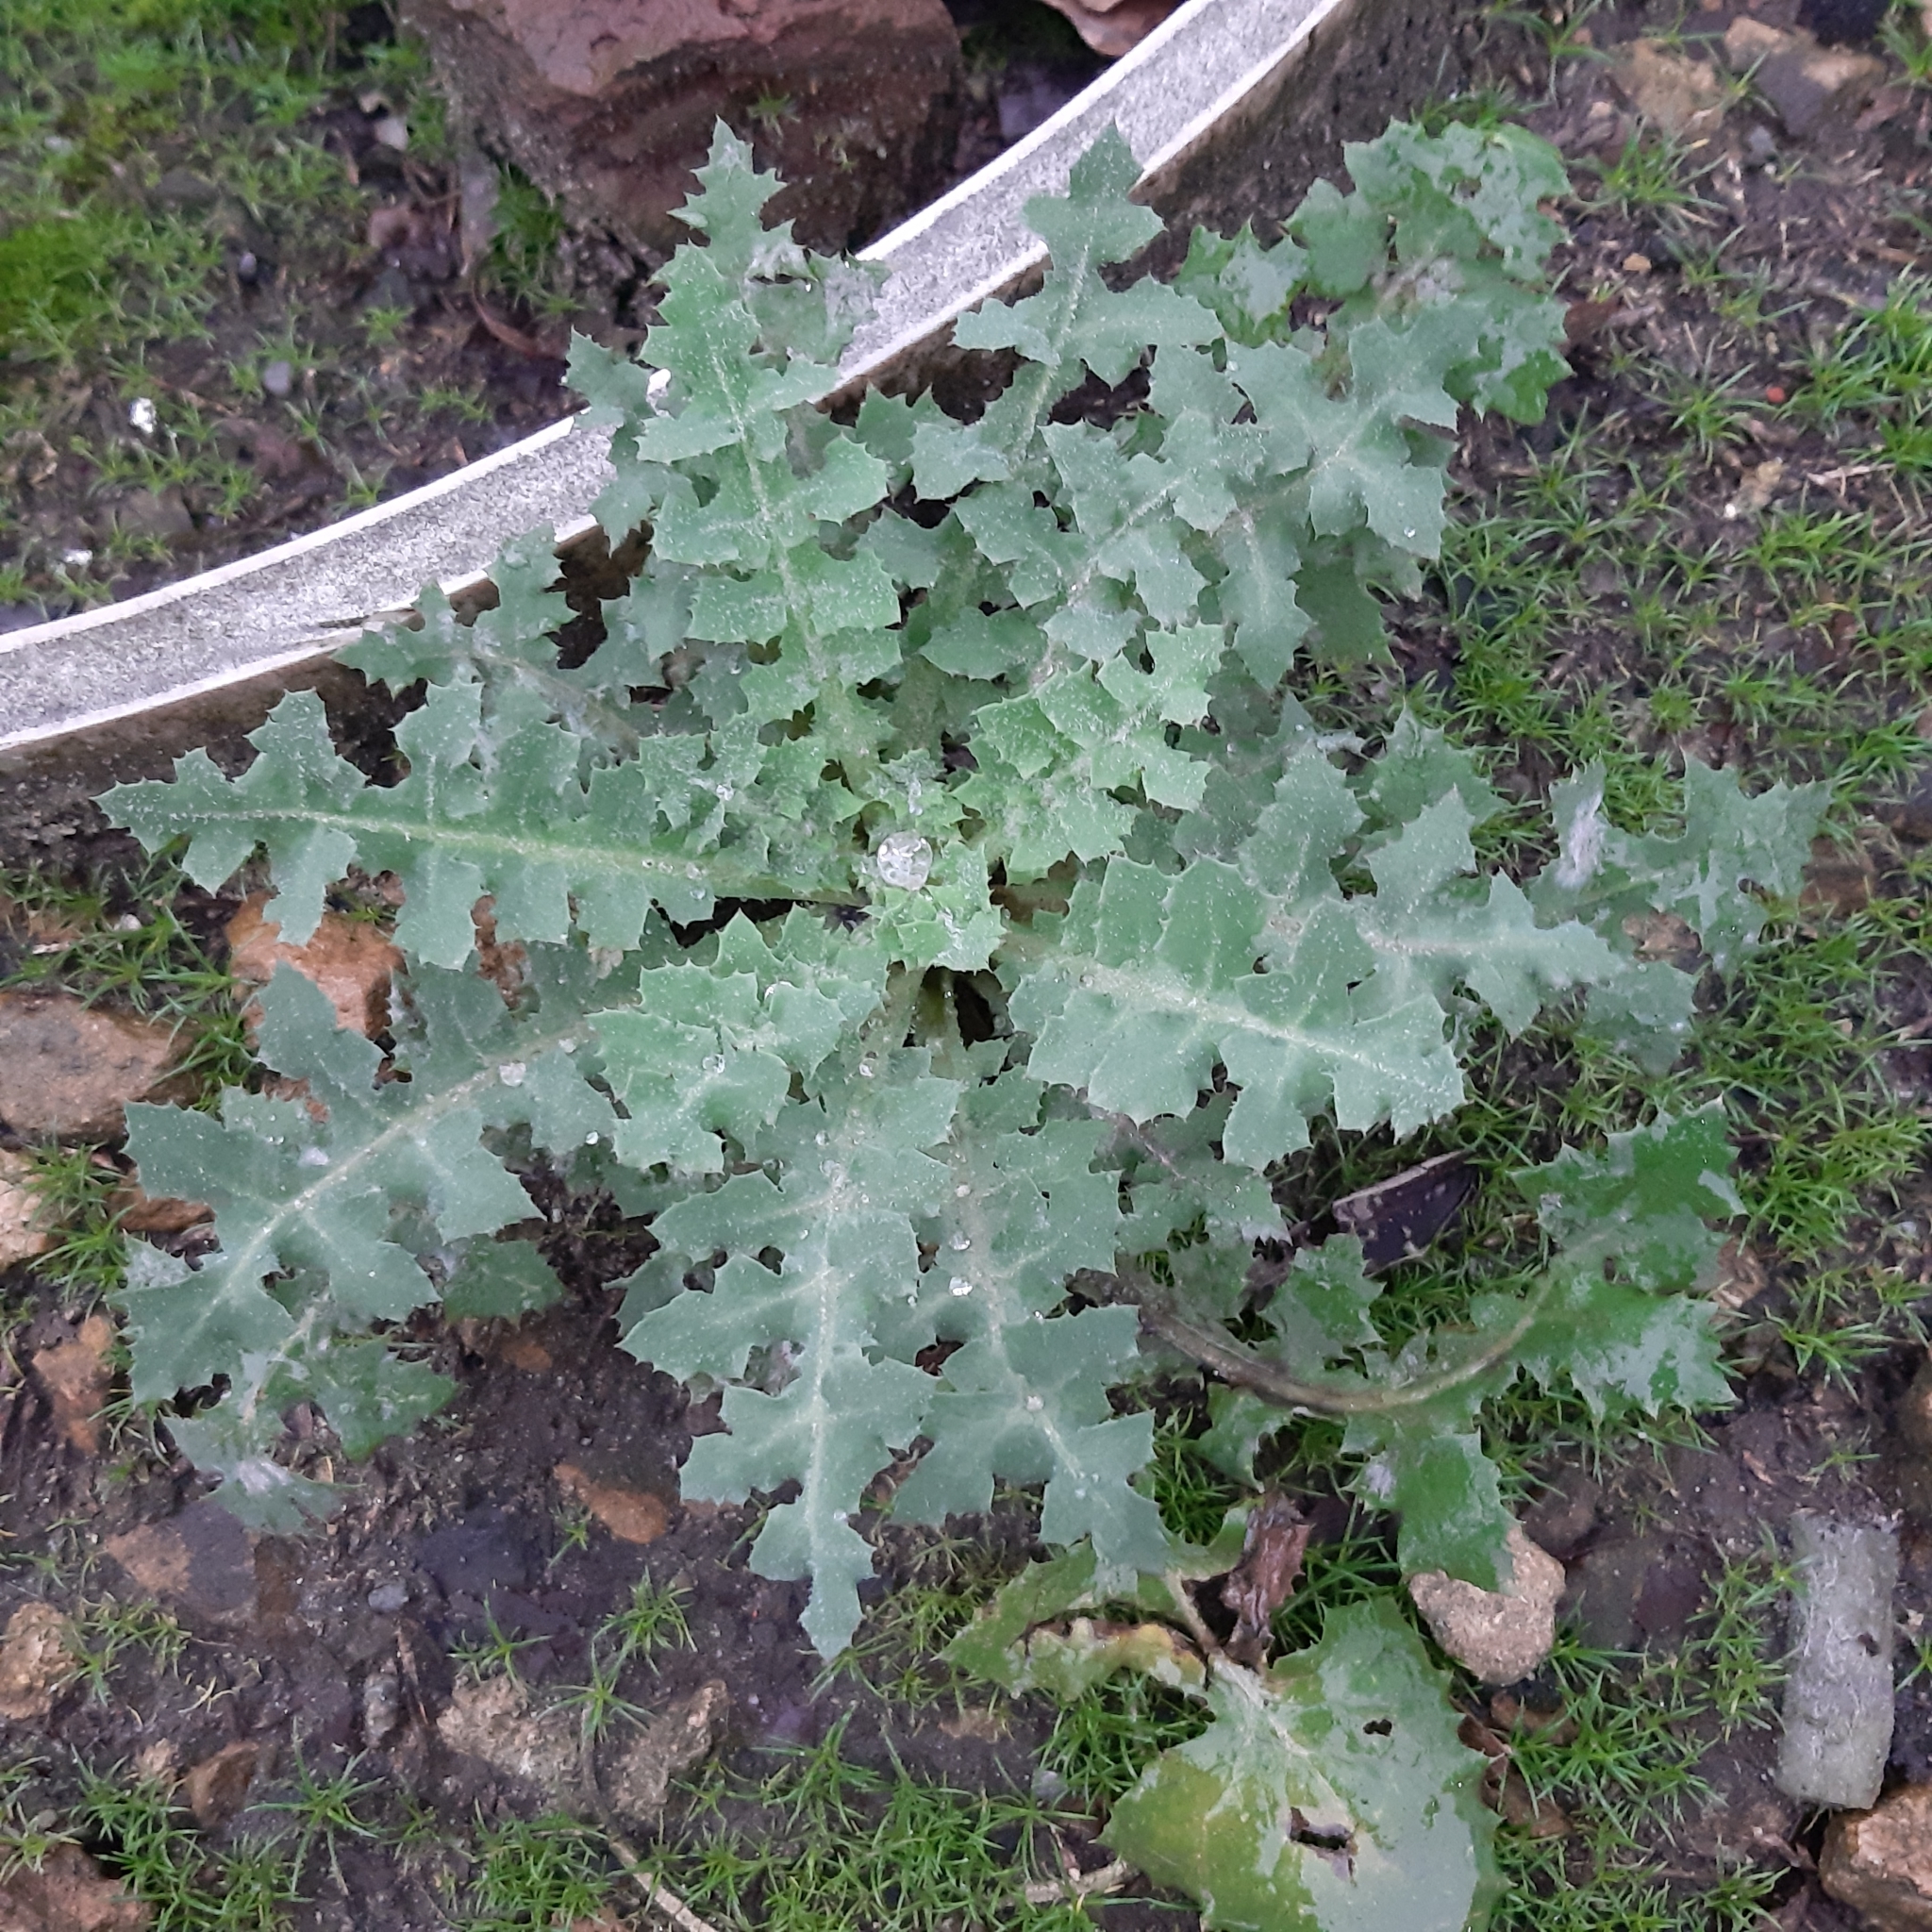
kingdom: Plantae
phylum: Tracheophyta
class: Magnoliopsida
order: Asterales
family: Asteraceae
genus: Sonchus
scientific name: Sonchus oleraceus
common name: Common sowthistle
